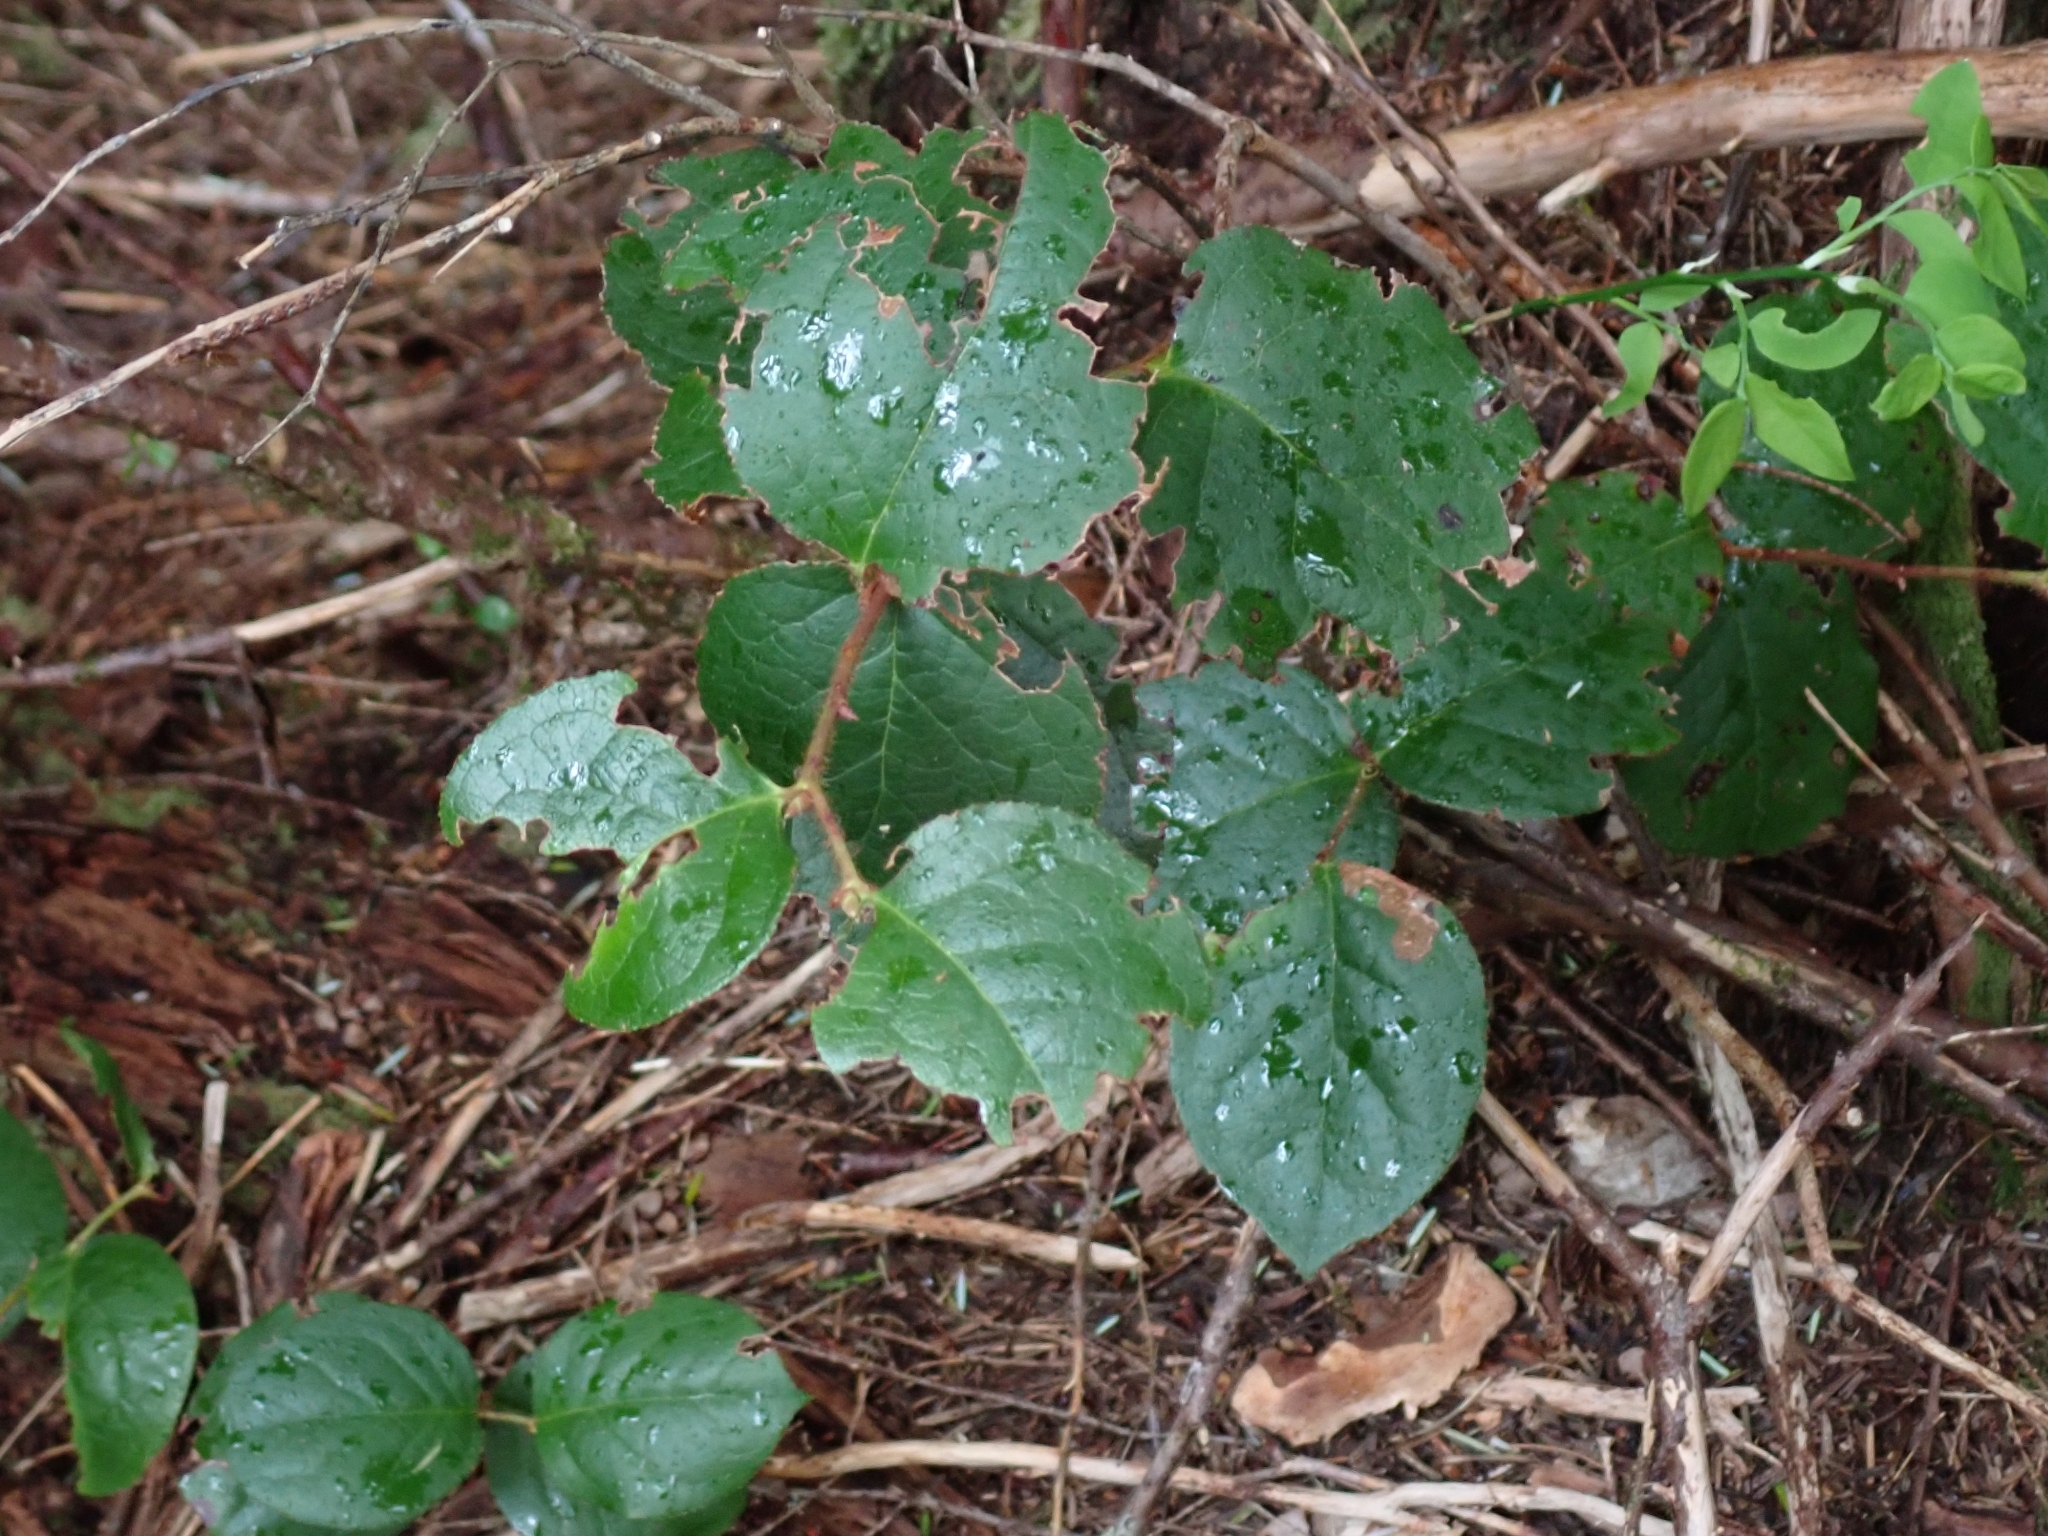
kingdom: Plantae
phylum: Tracheophyta
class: Magnoliopsida
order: Ericales
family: Ericaceae
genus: Gaultheria
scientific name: Gaultheria shallon
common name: Shallon
